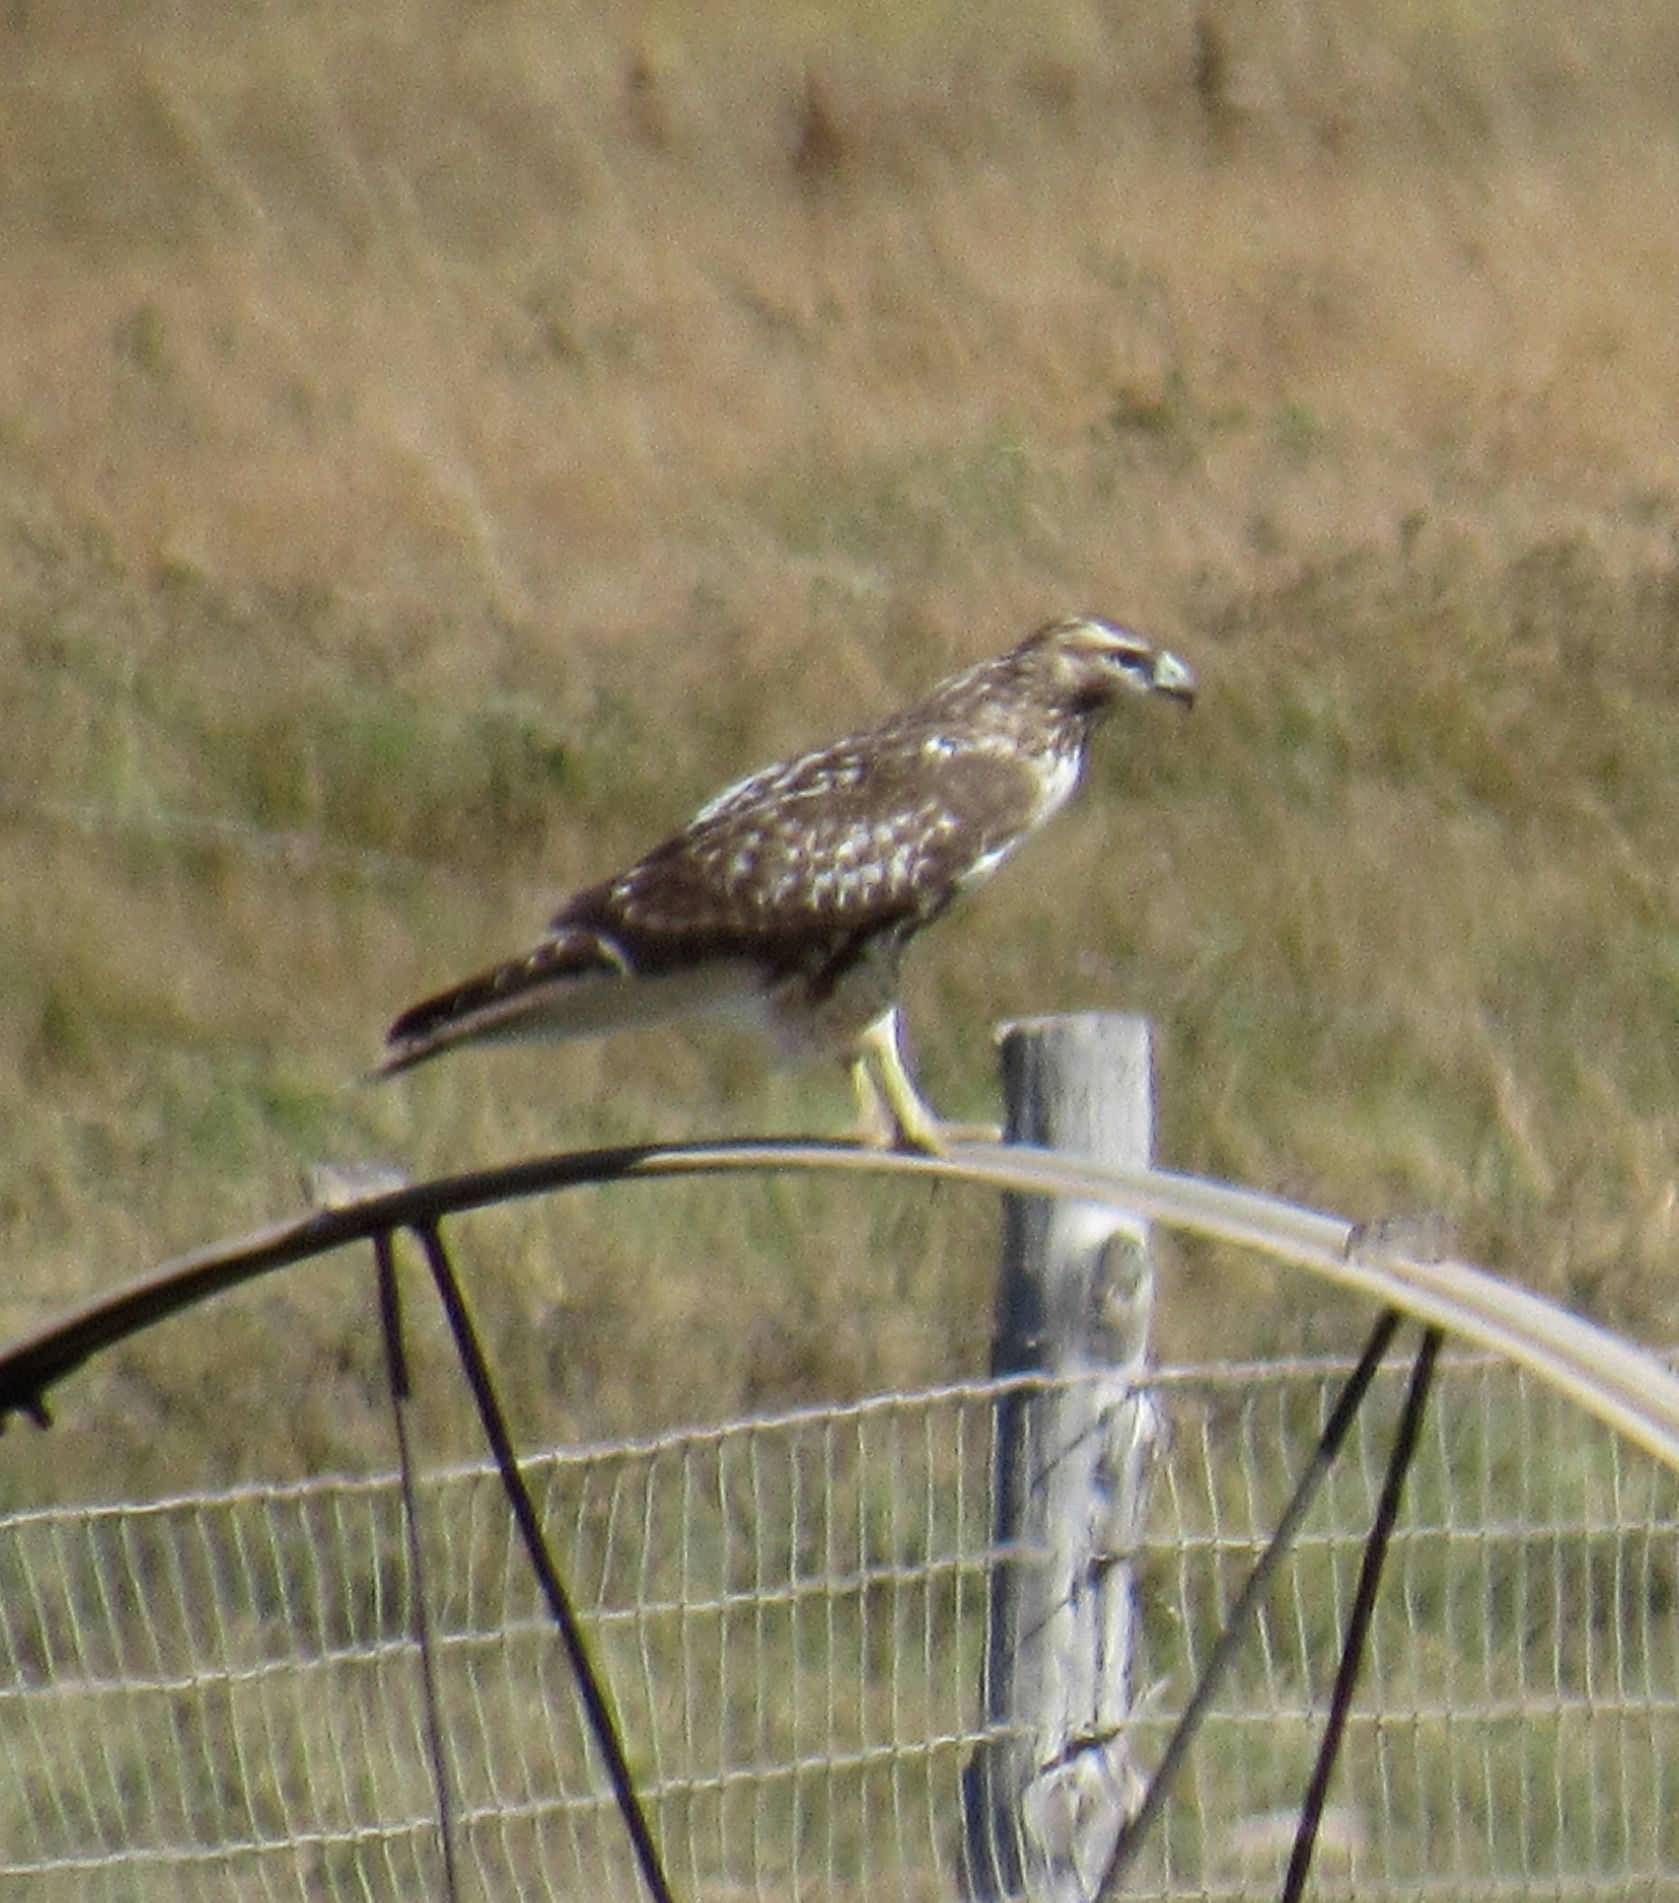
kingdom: Animalia
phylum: Chordata
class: Aves
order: Accipitriformes
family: Accipitridae
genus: Buteo
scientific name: Buteo jamaicensis
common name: Red-tailed hawk
